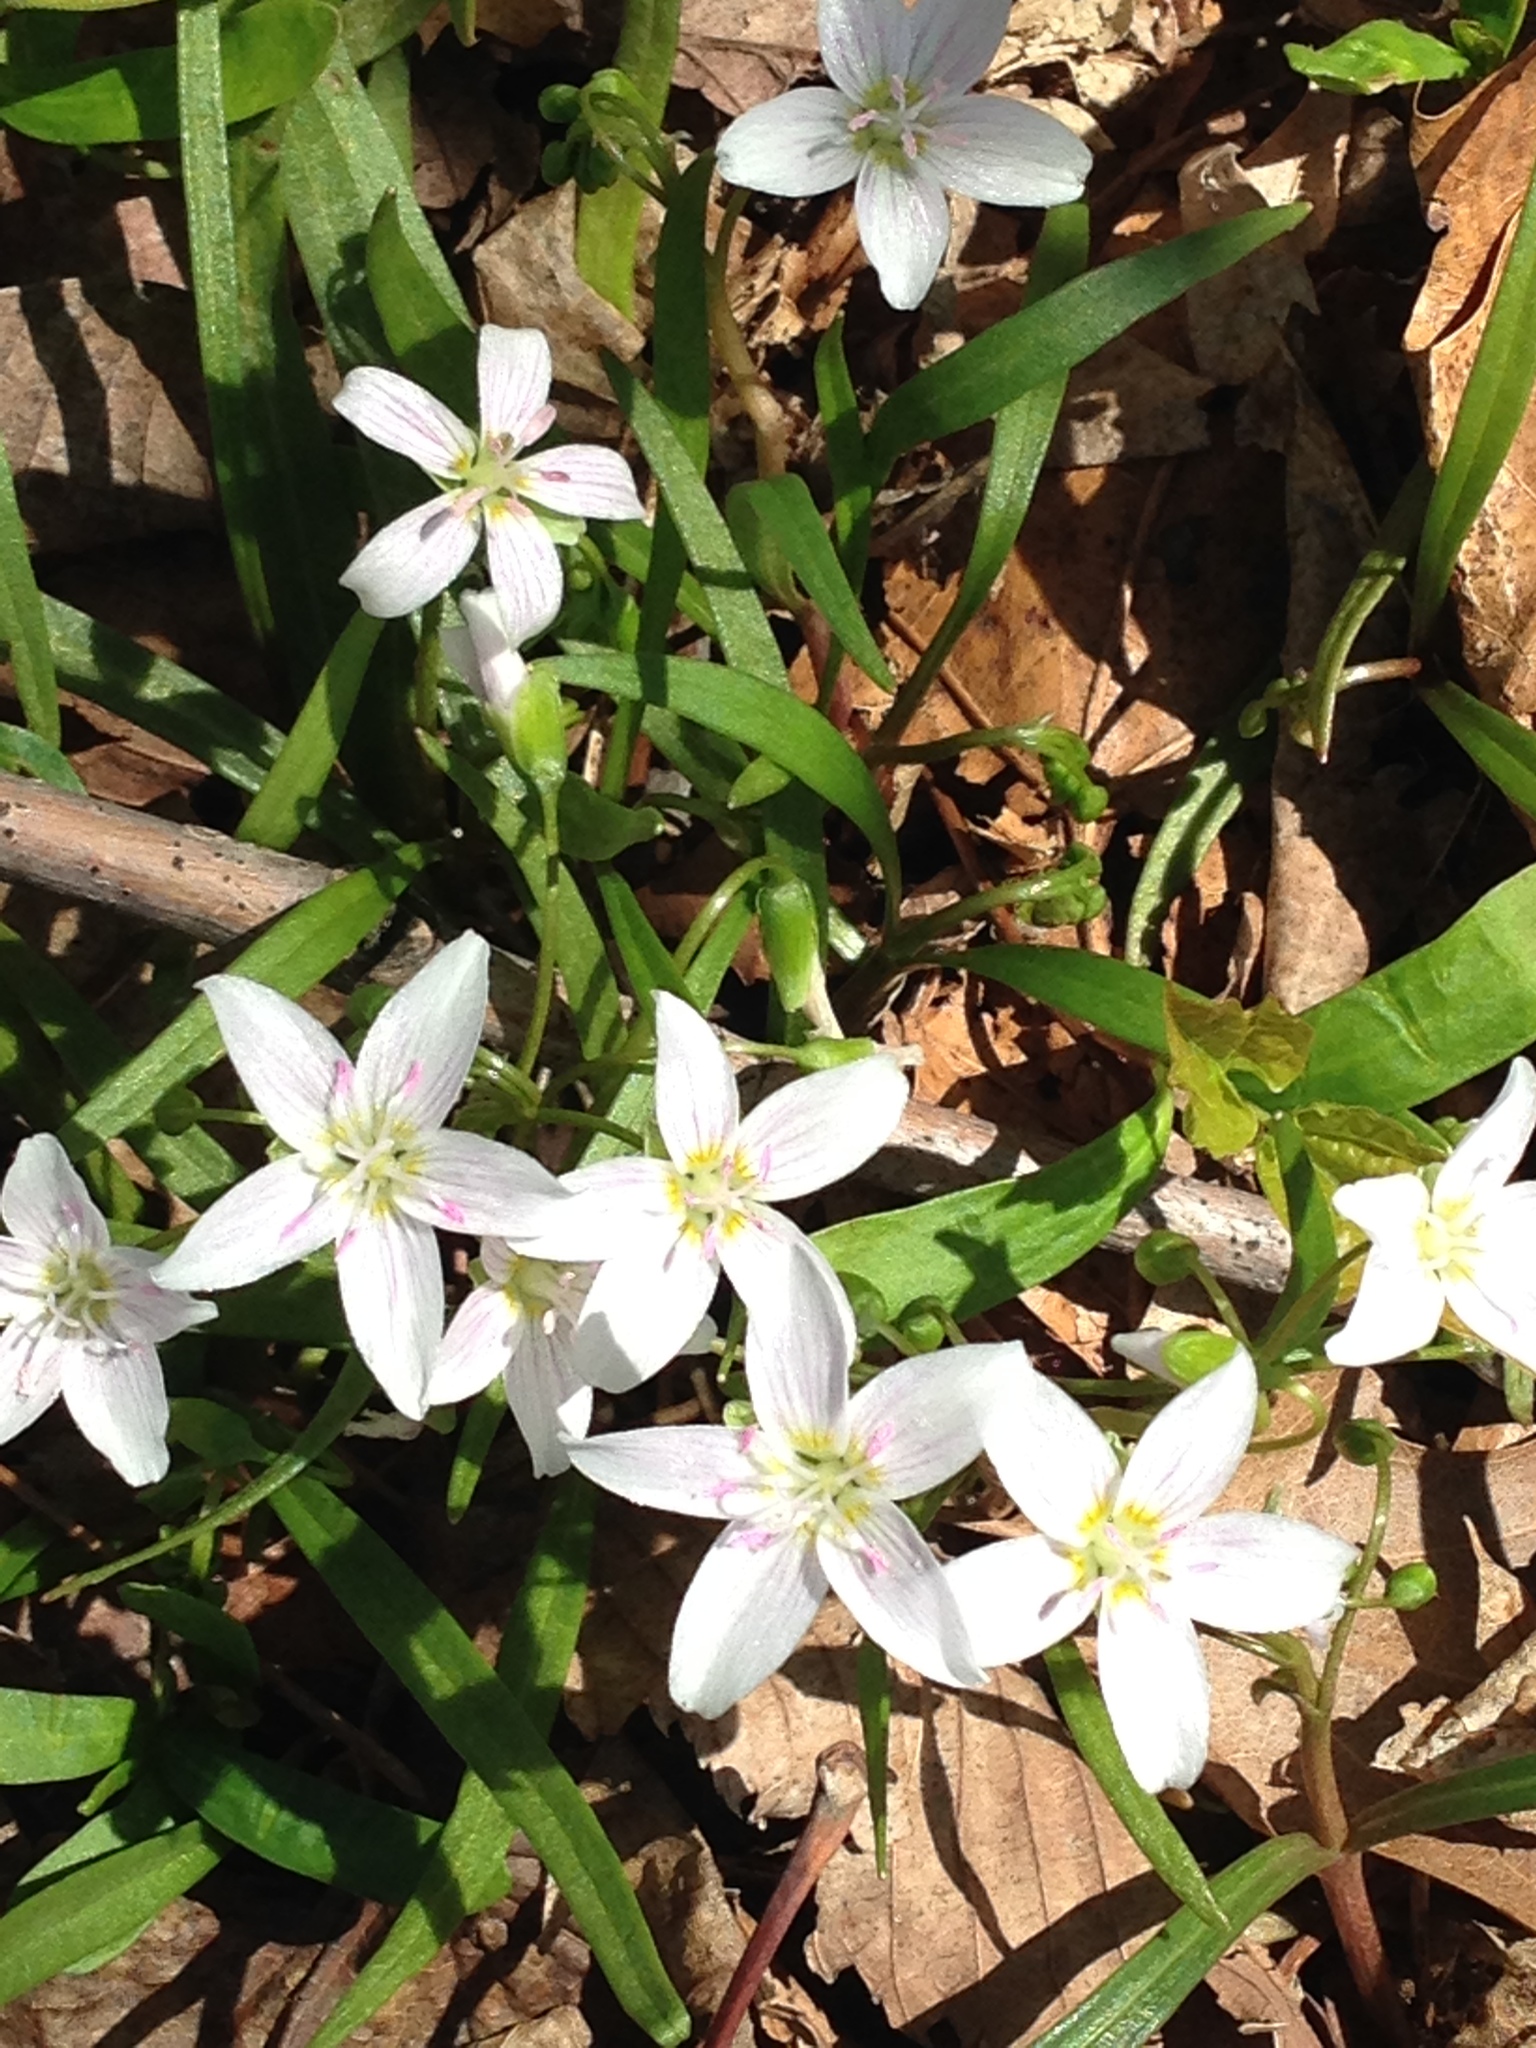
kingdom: Plantae
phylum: Tracheophyta
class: Magnoliopsida
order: Caryophyllales
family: Montiaceae
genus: Claytonia
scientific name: Claytonia virginica
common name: Virginia springbeauty
